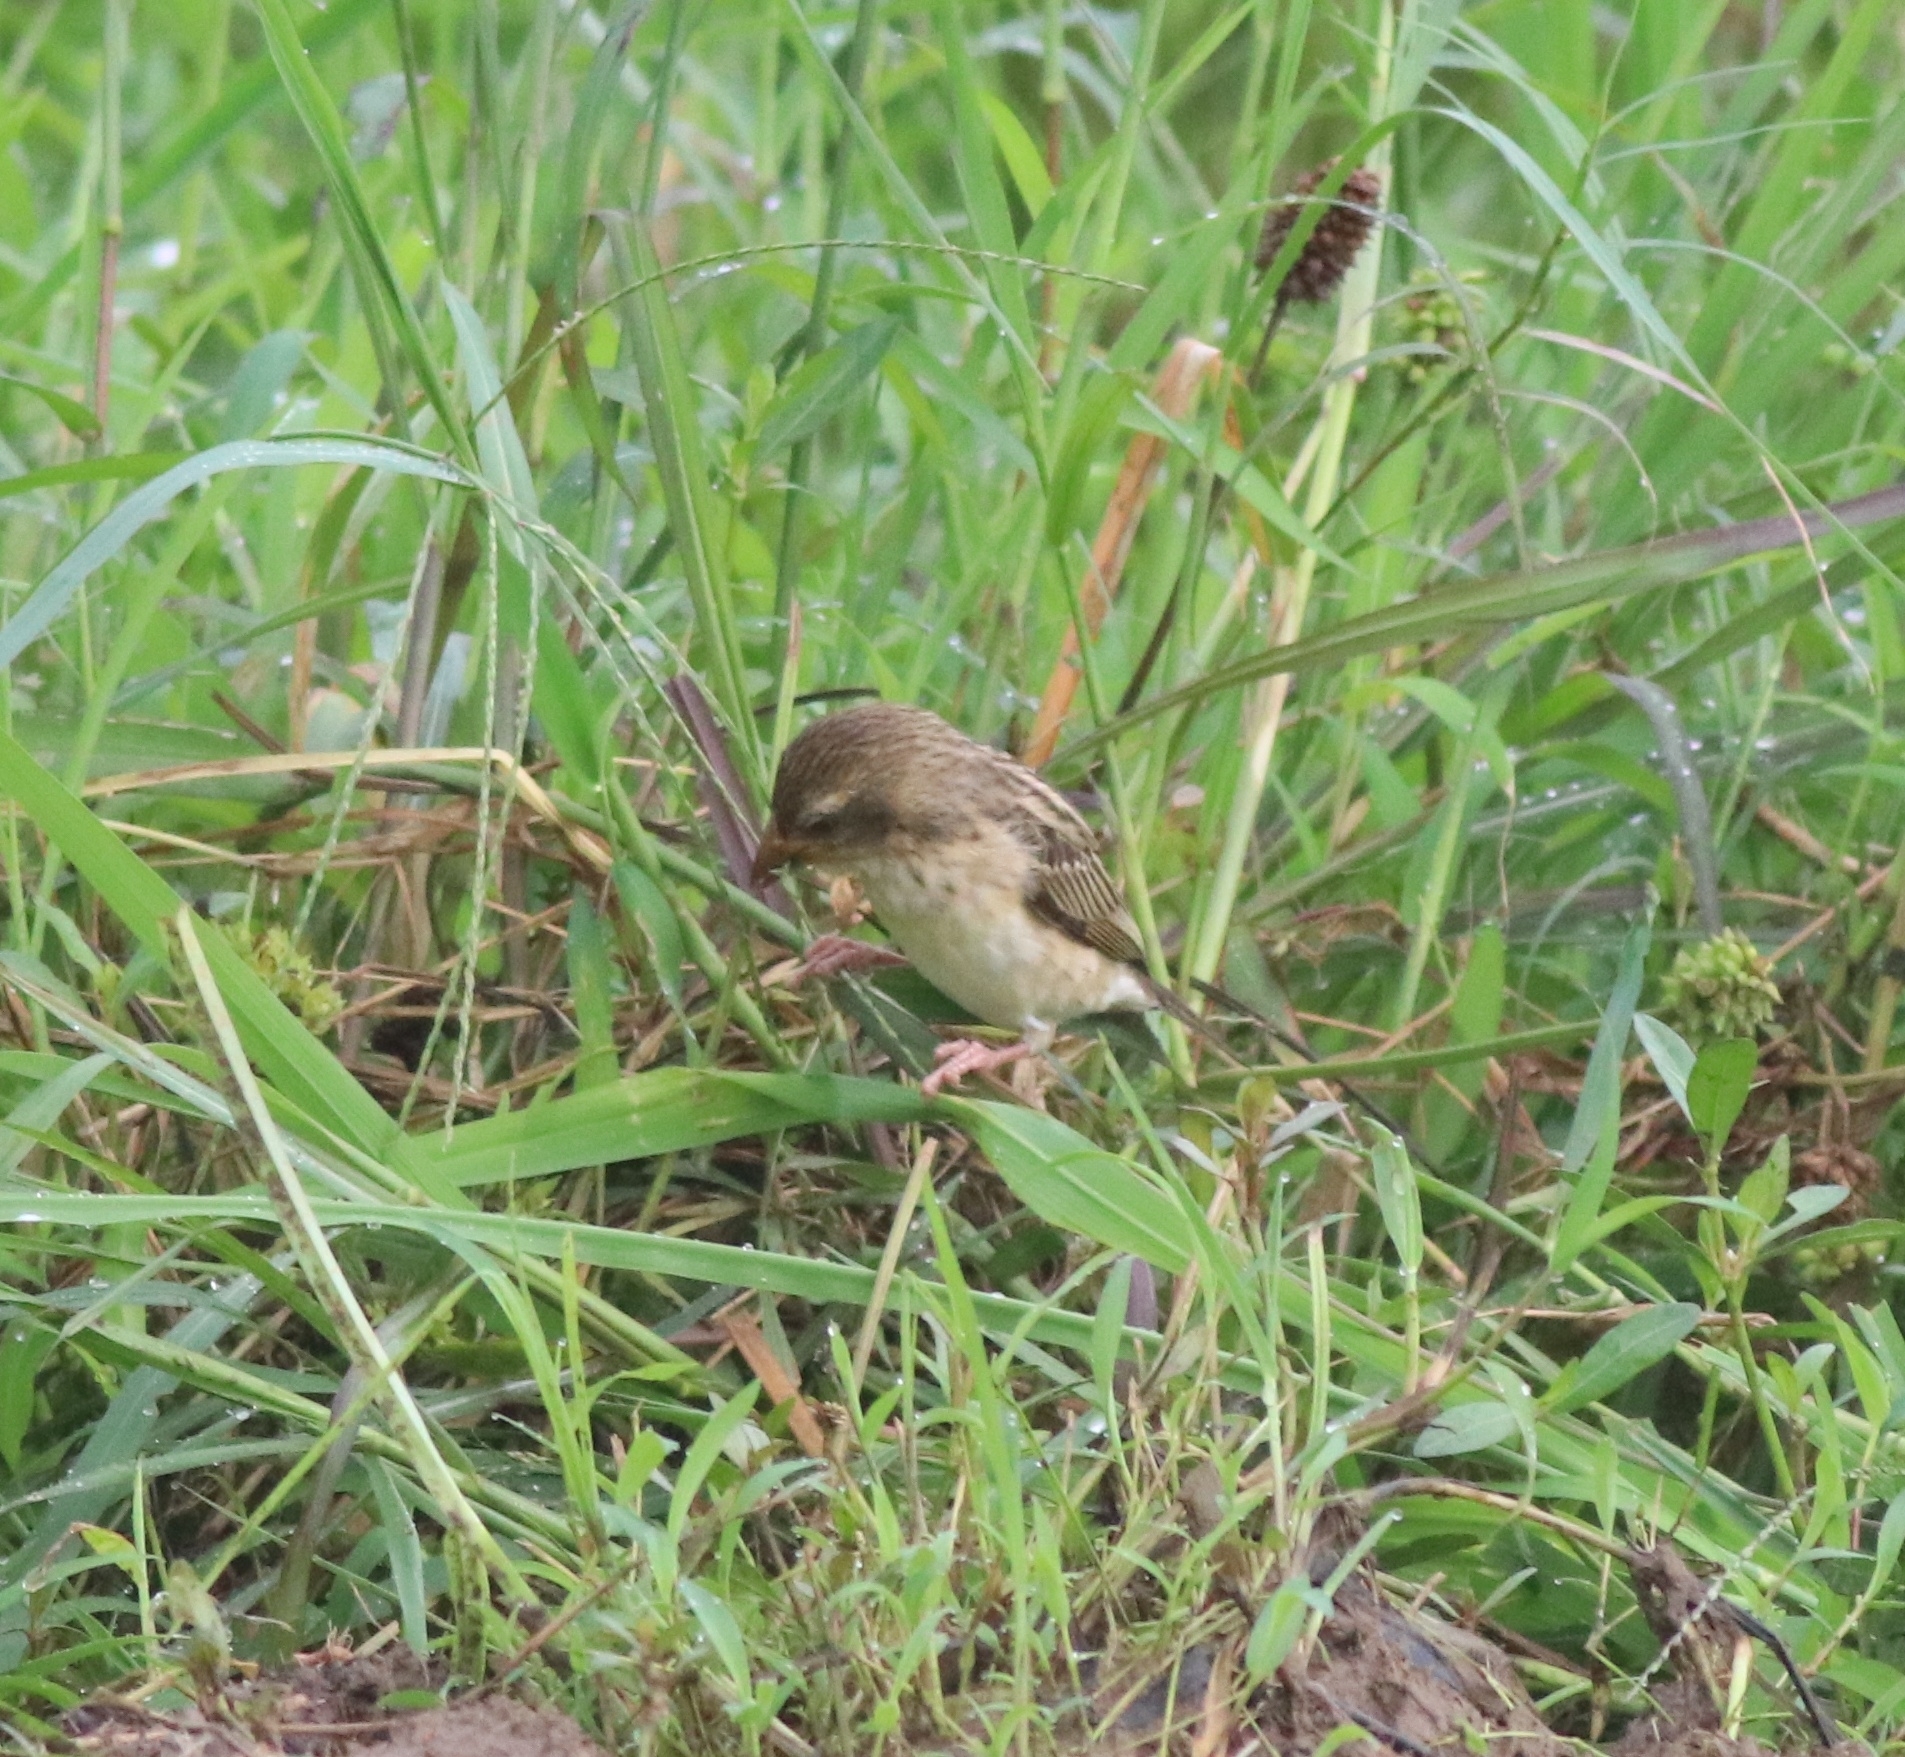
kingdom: Animalia
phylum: Chordata
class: Aves
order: Passeriformes
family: Ploceidae
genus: Ploceus
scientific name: Ploceus philippinus
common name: Baya weaver
